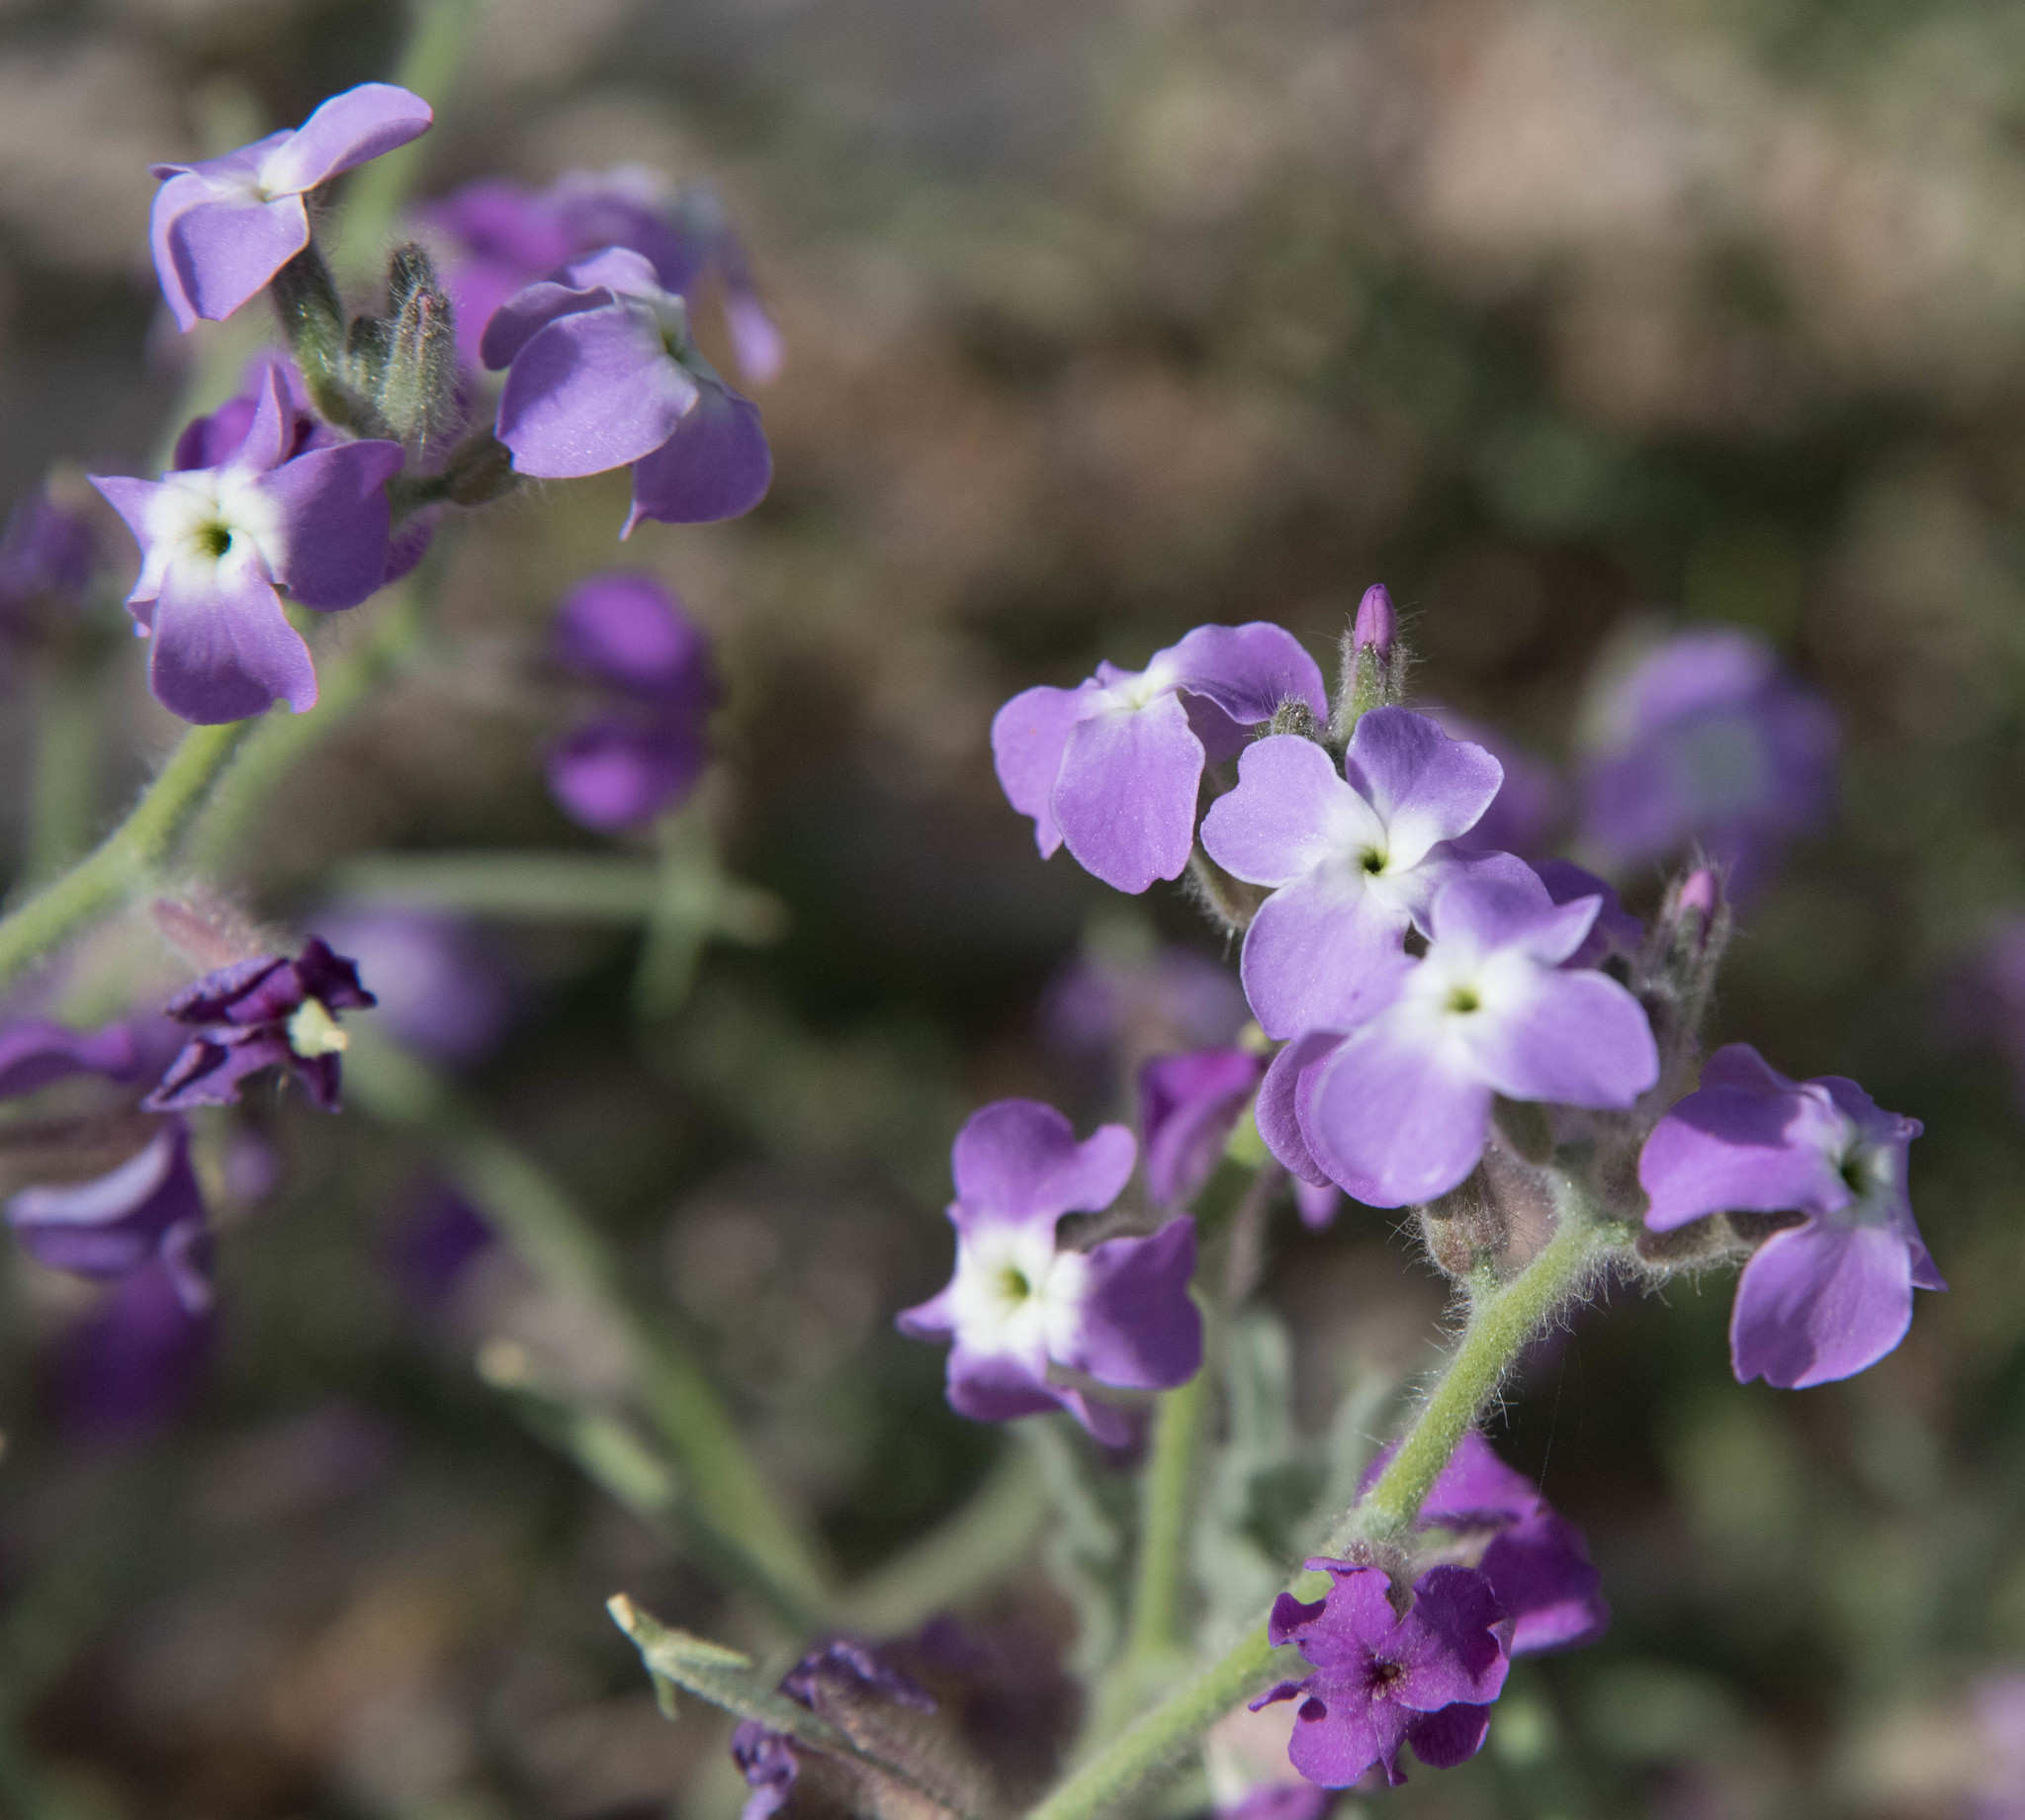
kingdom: Plantae
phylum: Tracheophyta
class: Magnoliopsida
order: Brassicales
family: Brassicaceae
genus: Matthiola
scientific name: Matthiola tricuspidata
